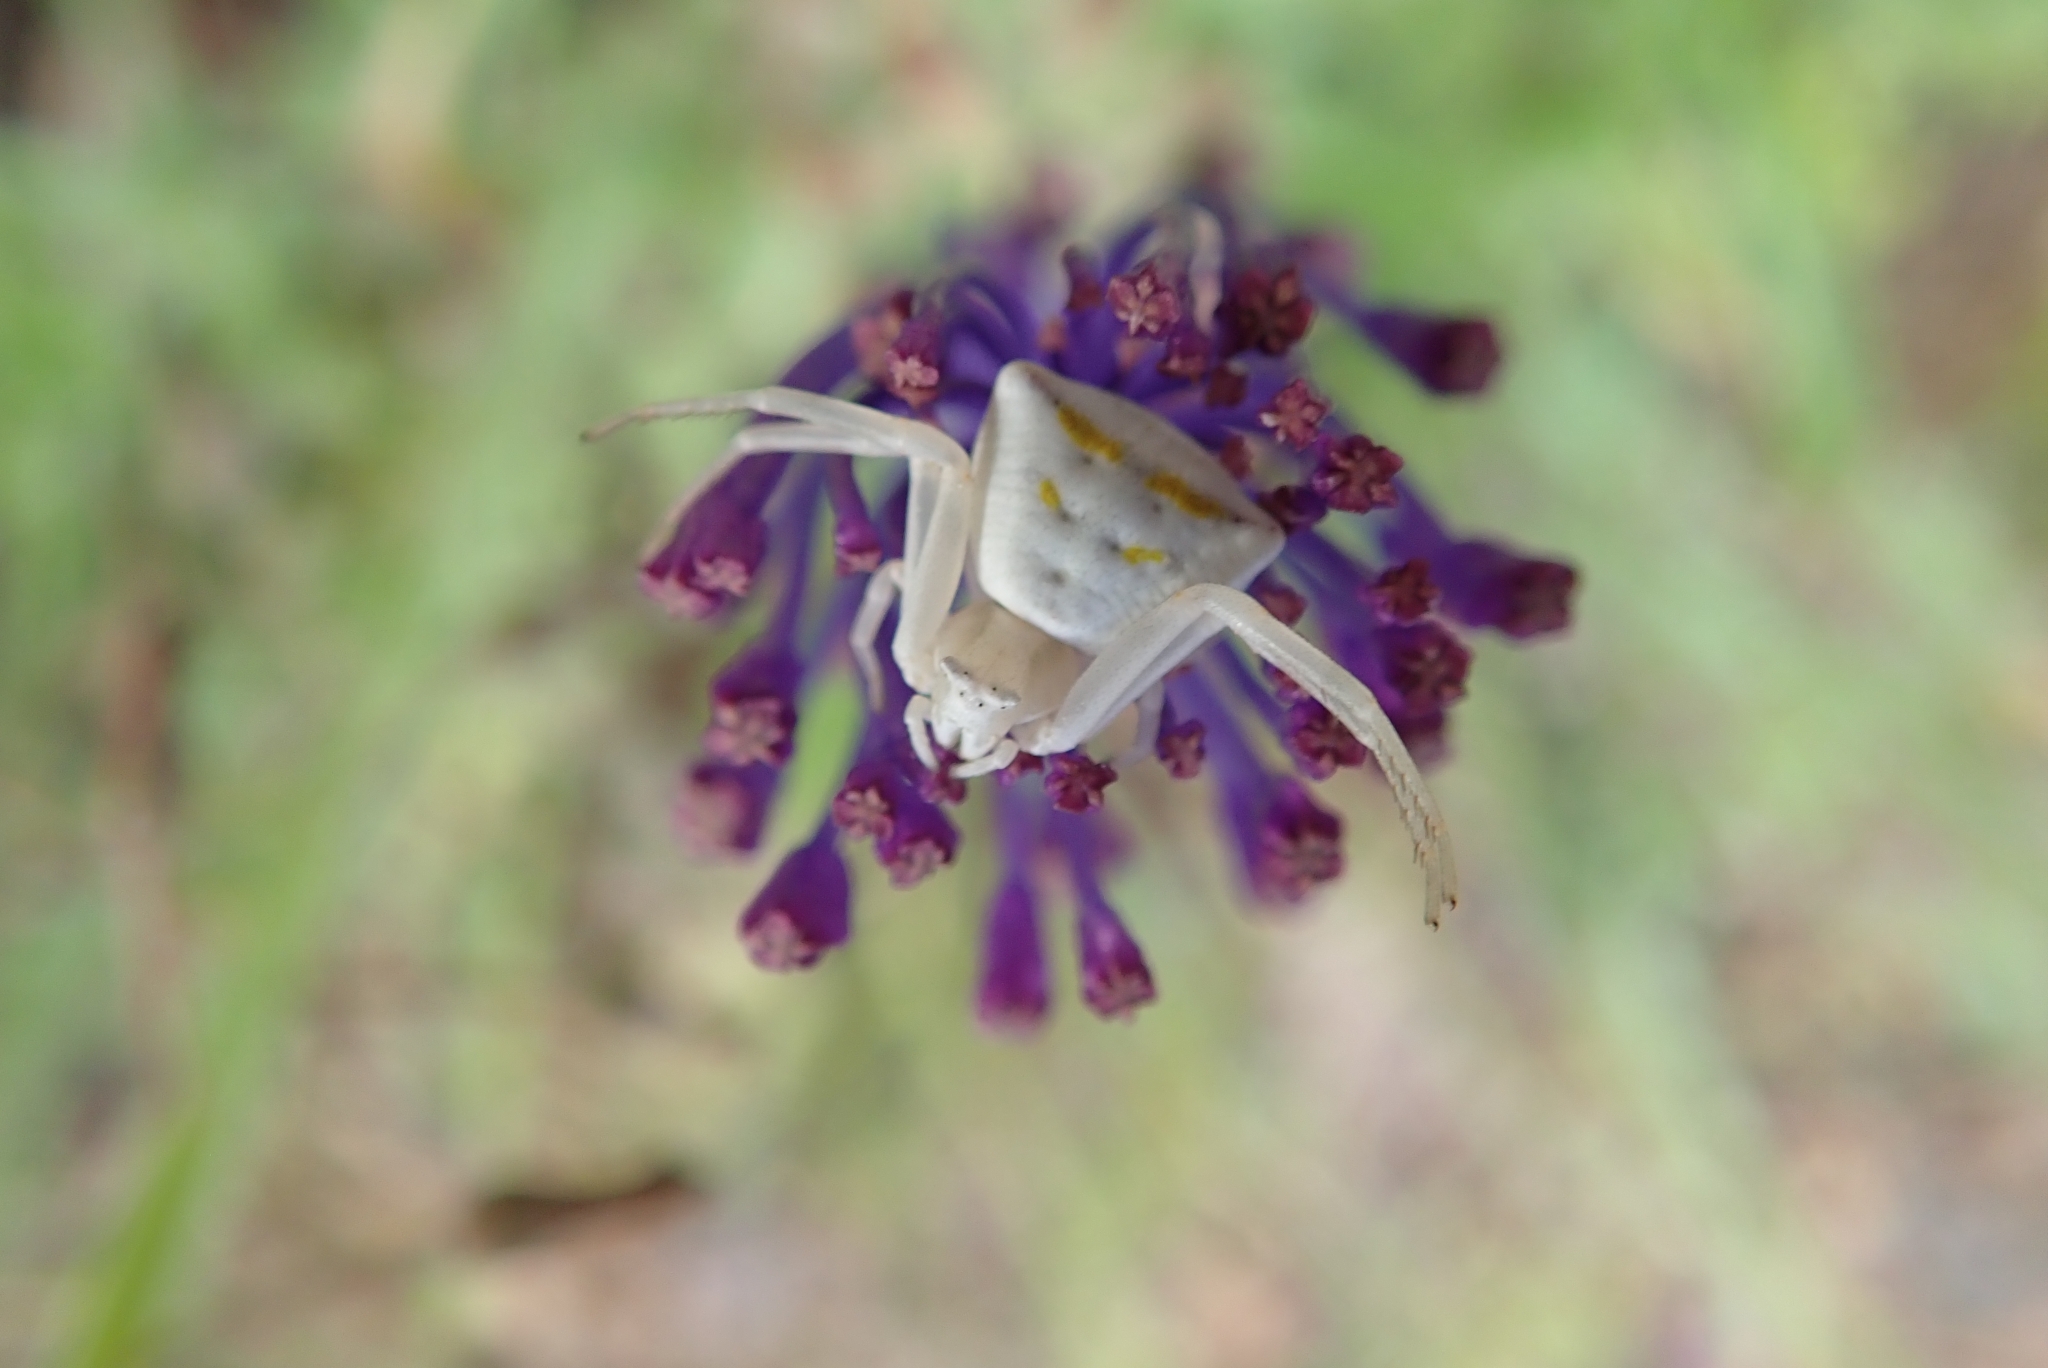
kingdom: Animalia
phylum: Arthropoda
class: Arachnida
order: Araneae
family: Thomisidae
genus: Thomisus
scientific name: Thomisus onustus
